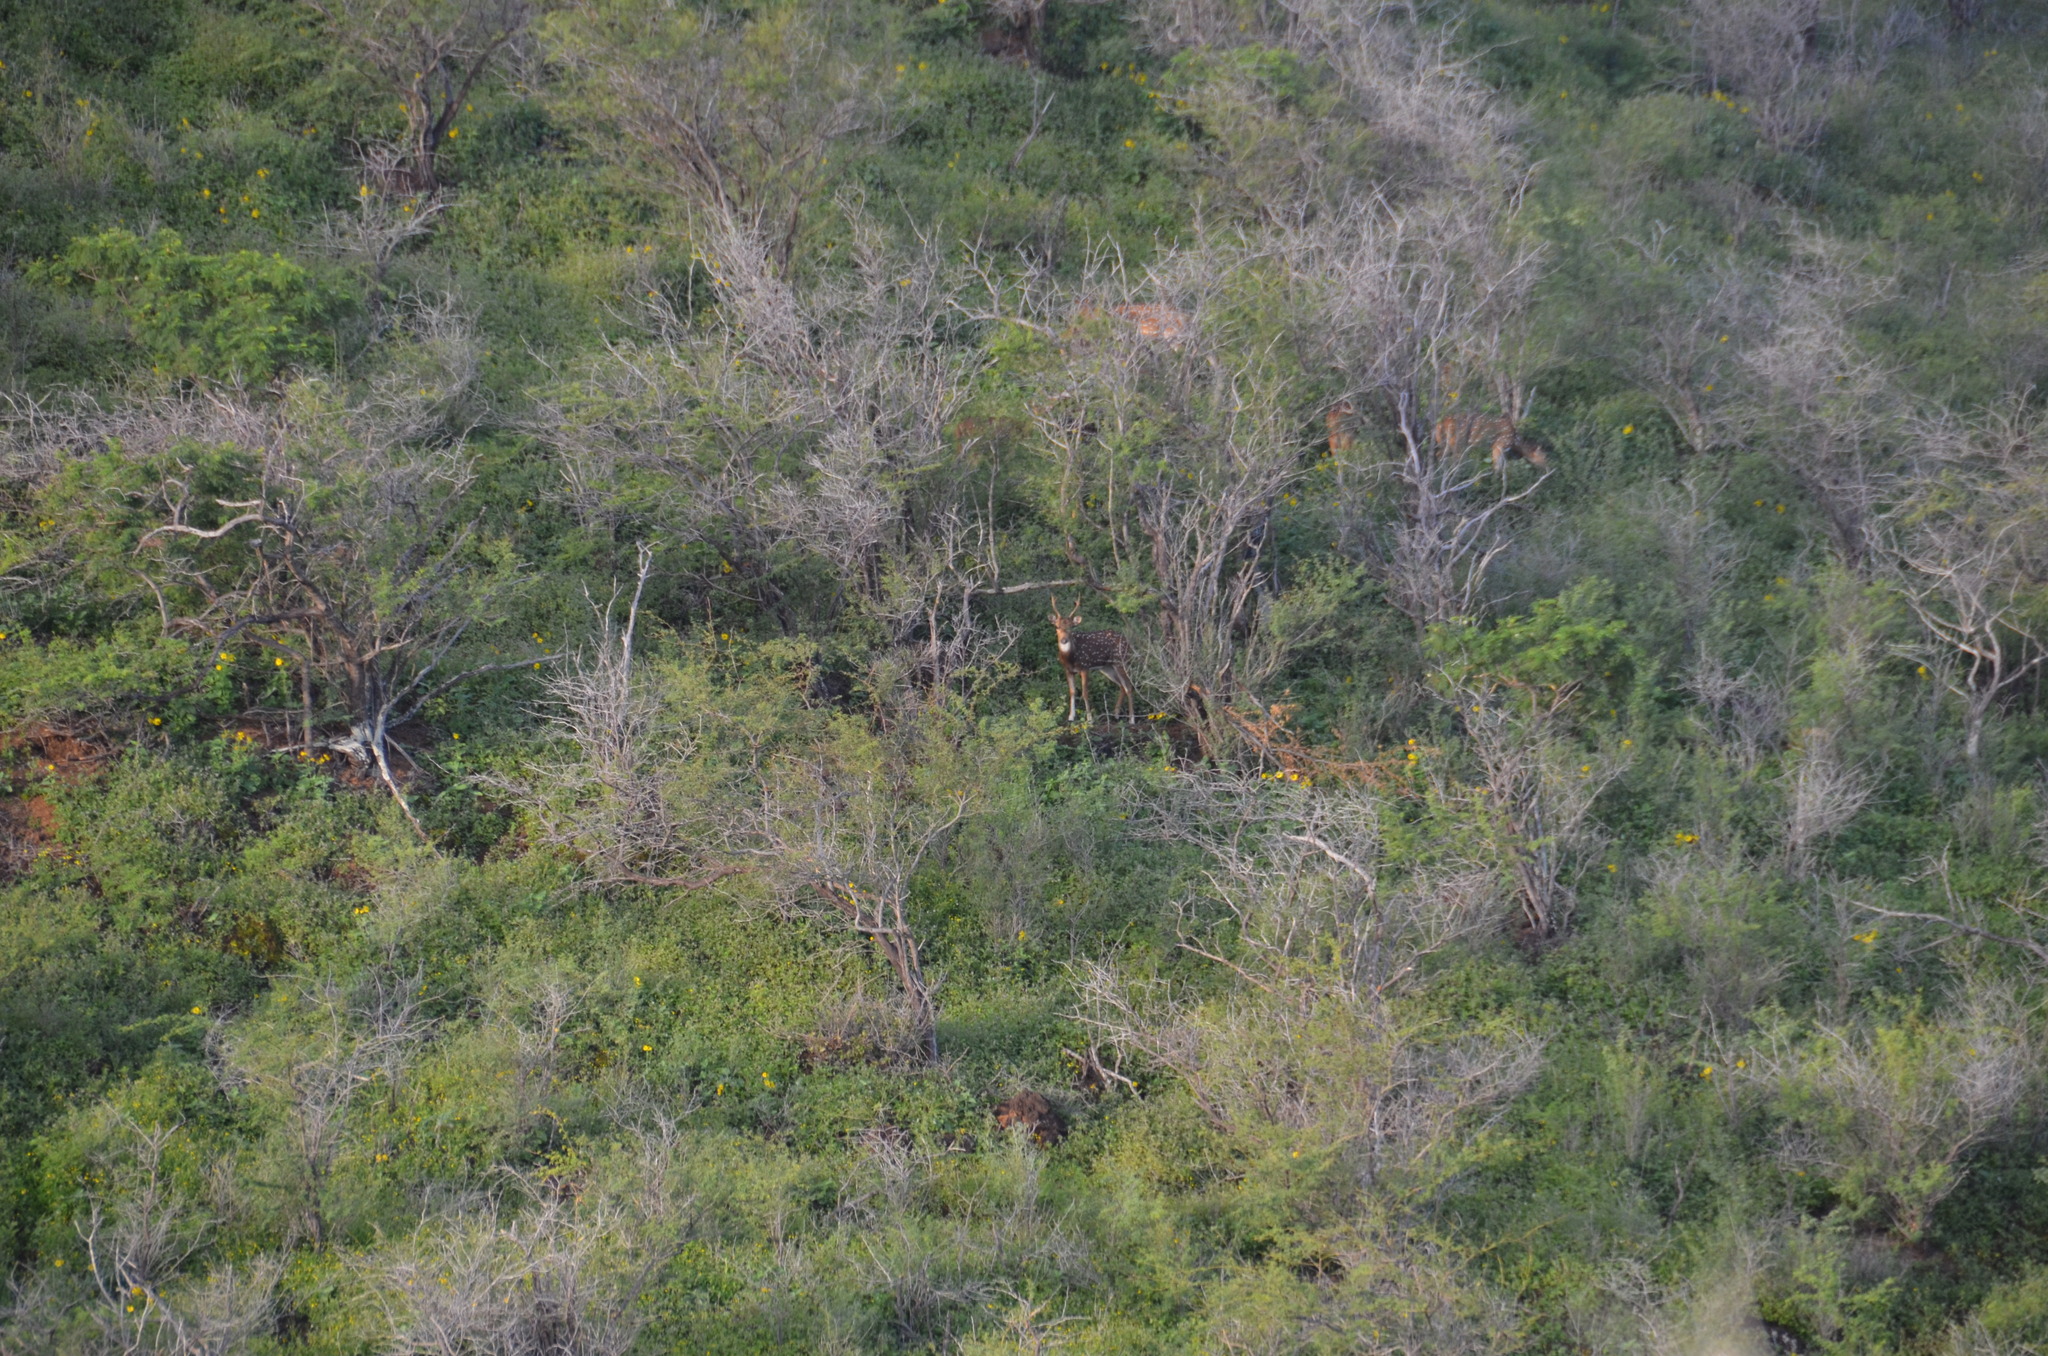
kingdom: Plantae
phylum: Tracheophyta
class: Magnoliopsida
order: Fabales
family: Fabaceae
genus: Prosopis
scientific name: Prosopis pallida
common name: Mesquite
